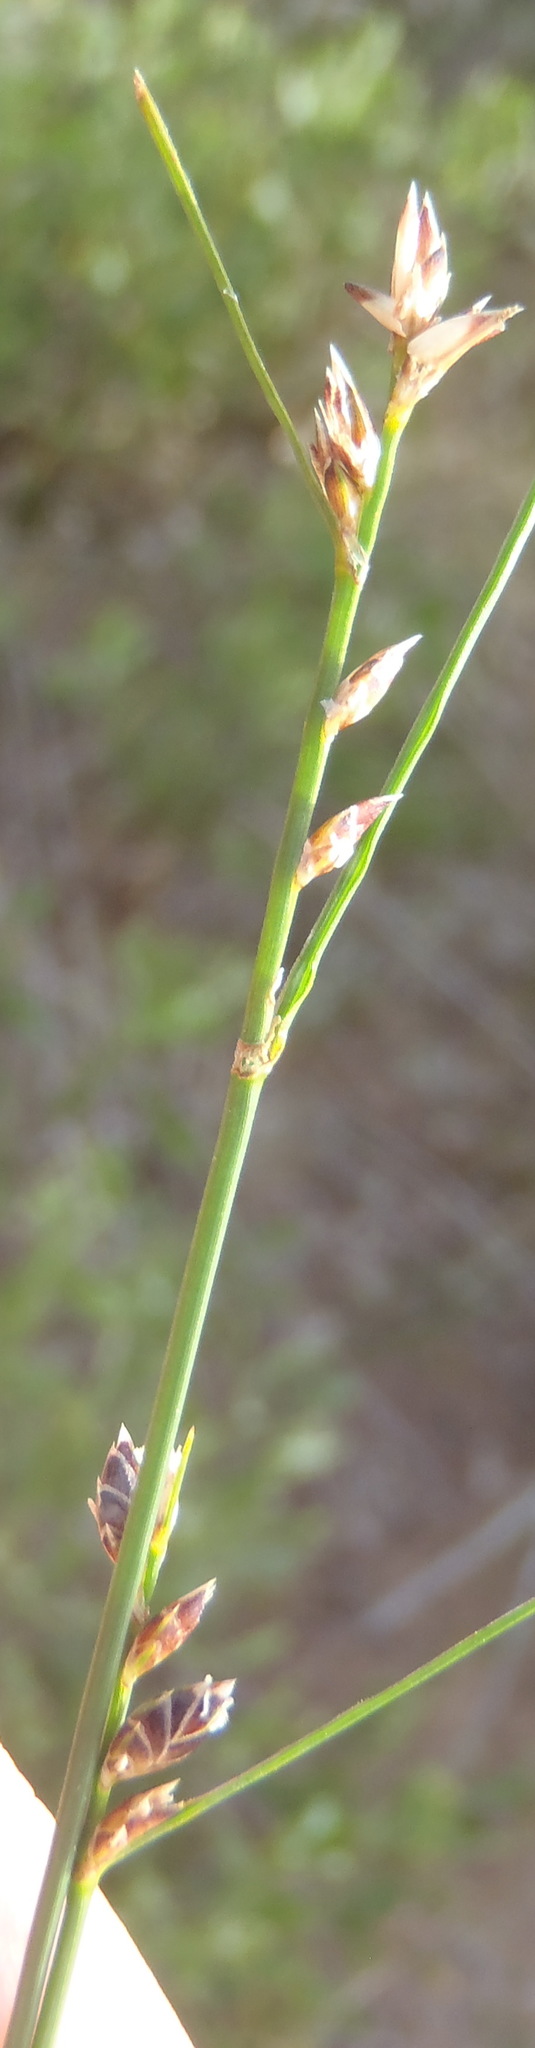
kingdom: Plantae
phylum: Tracheophyta
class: Liliopsida
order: Poales
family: Cyperaceae
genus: Ficinia
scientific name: Ficinia secunda
